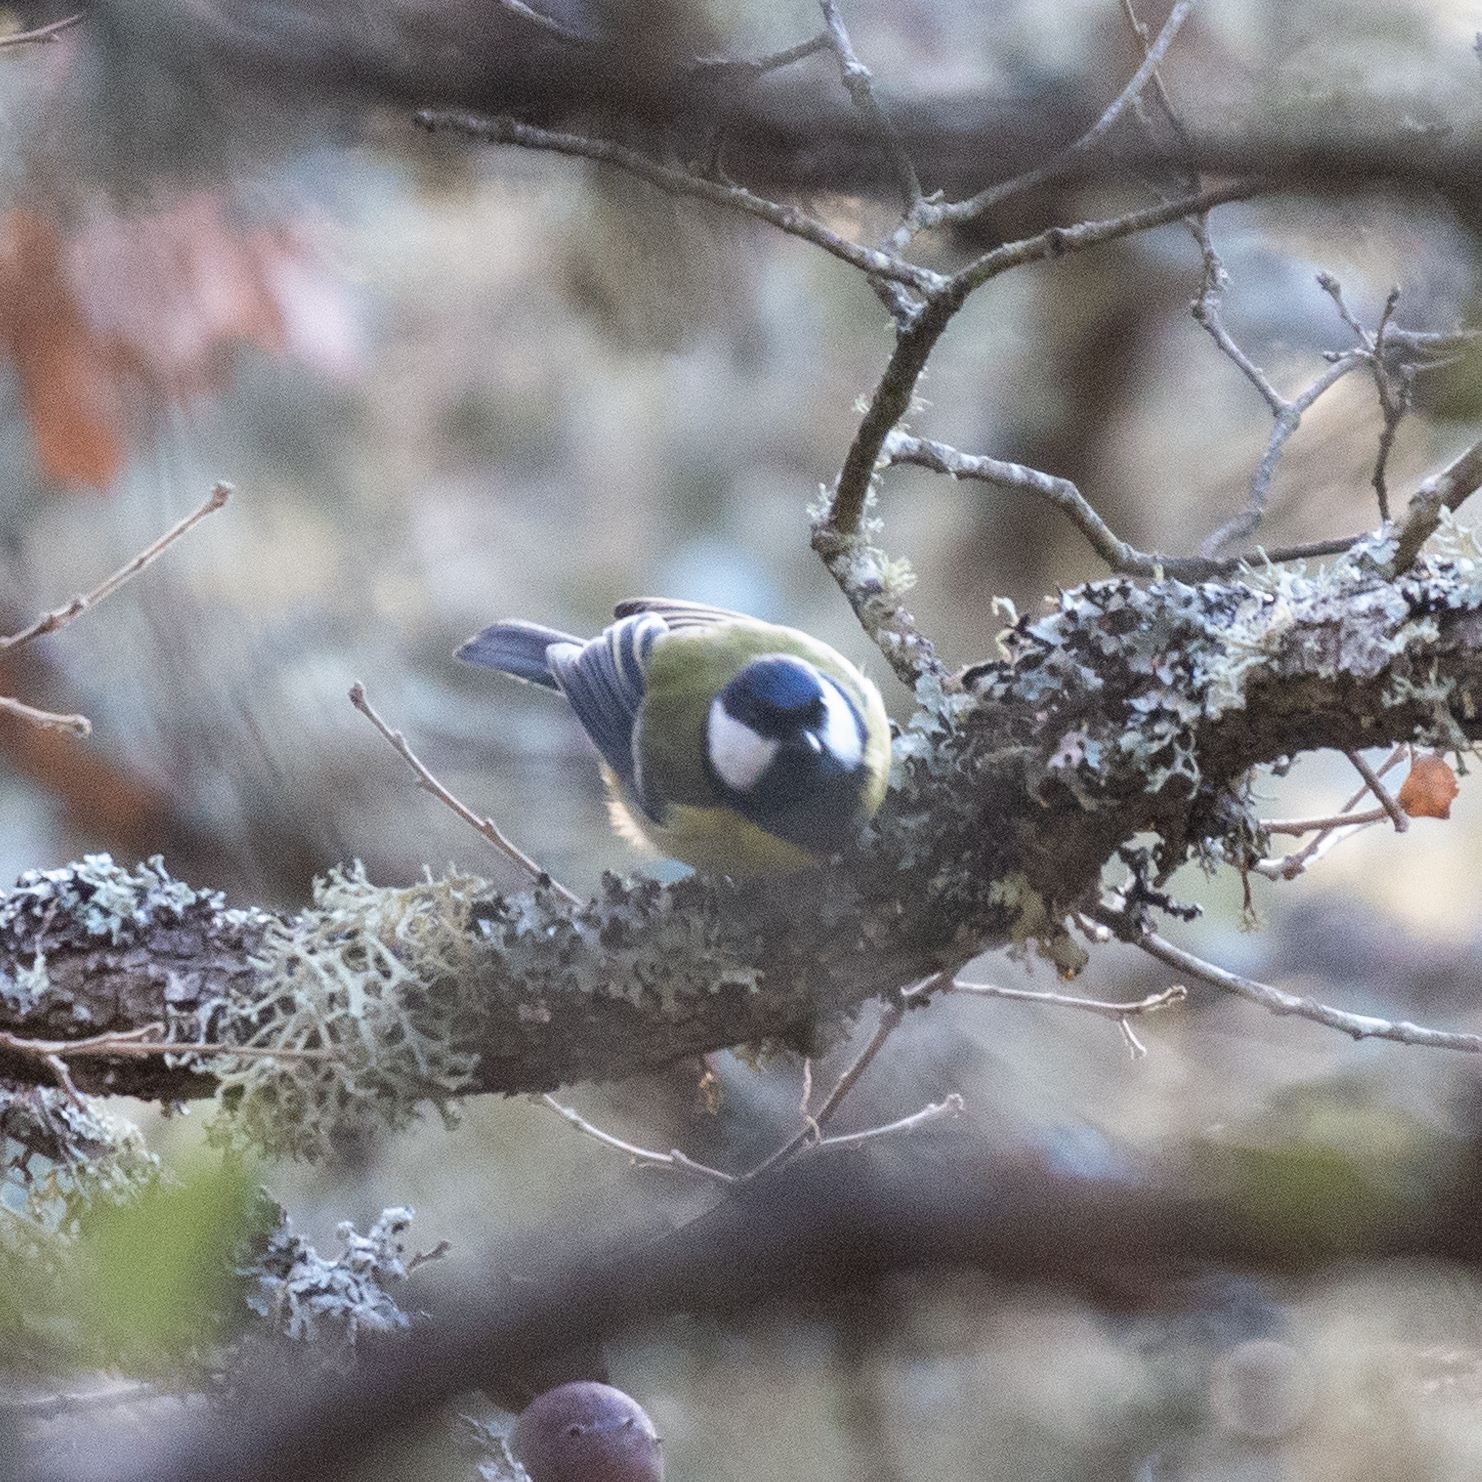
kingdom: Animalia
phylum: Chordata
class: Aves
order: Passeriformes
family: Paridae
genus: Parus
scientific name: Parus major
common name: Great tit
